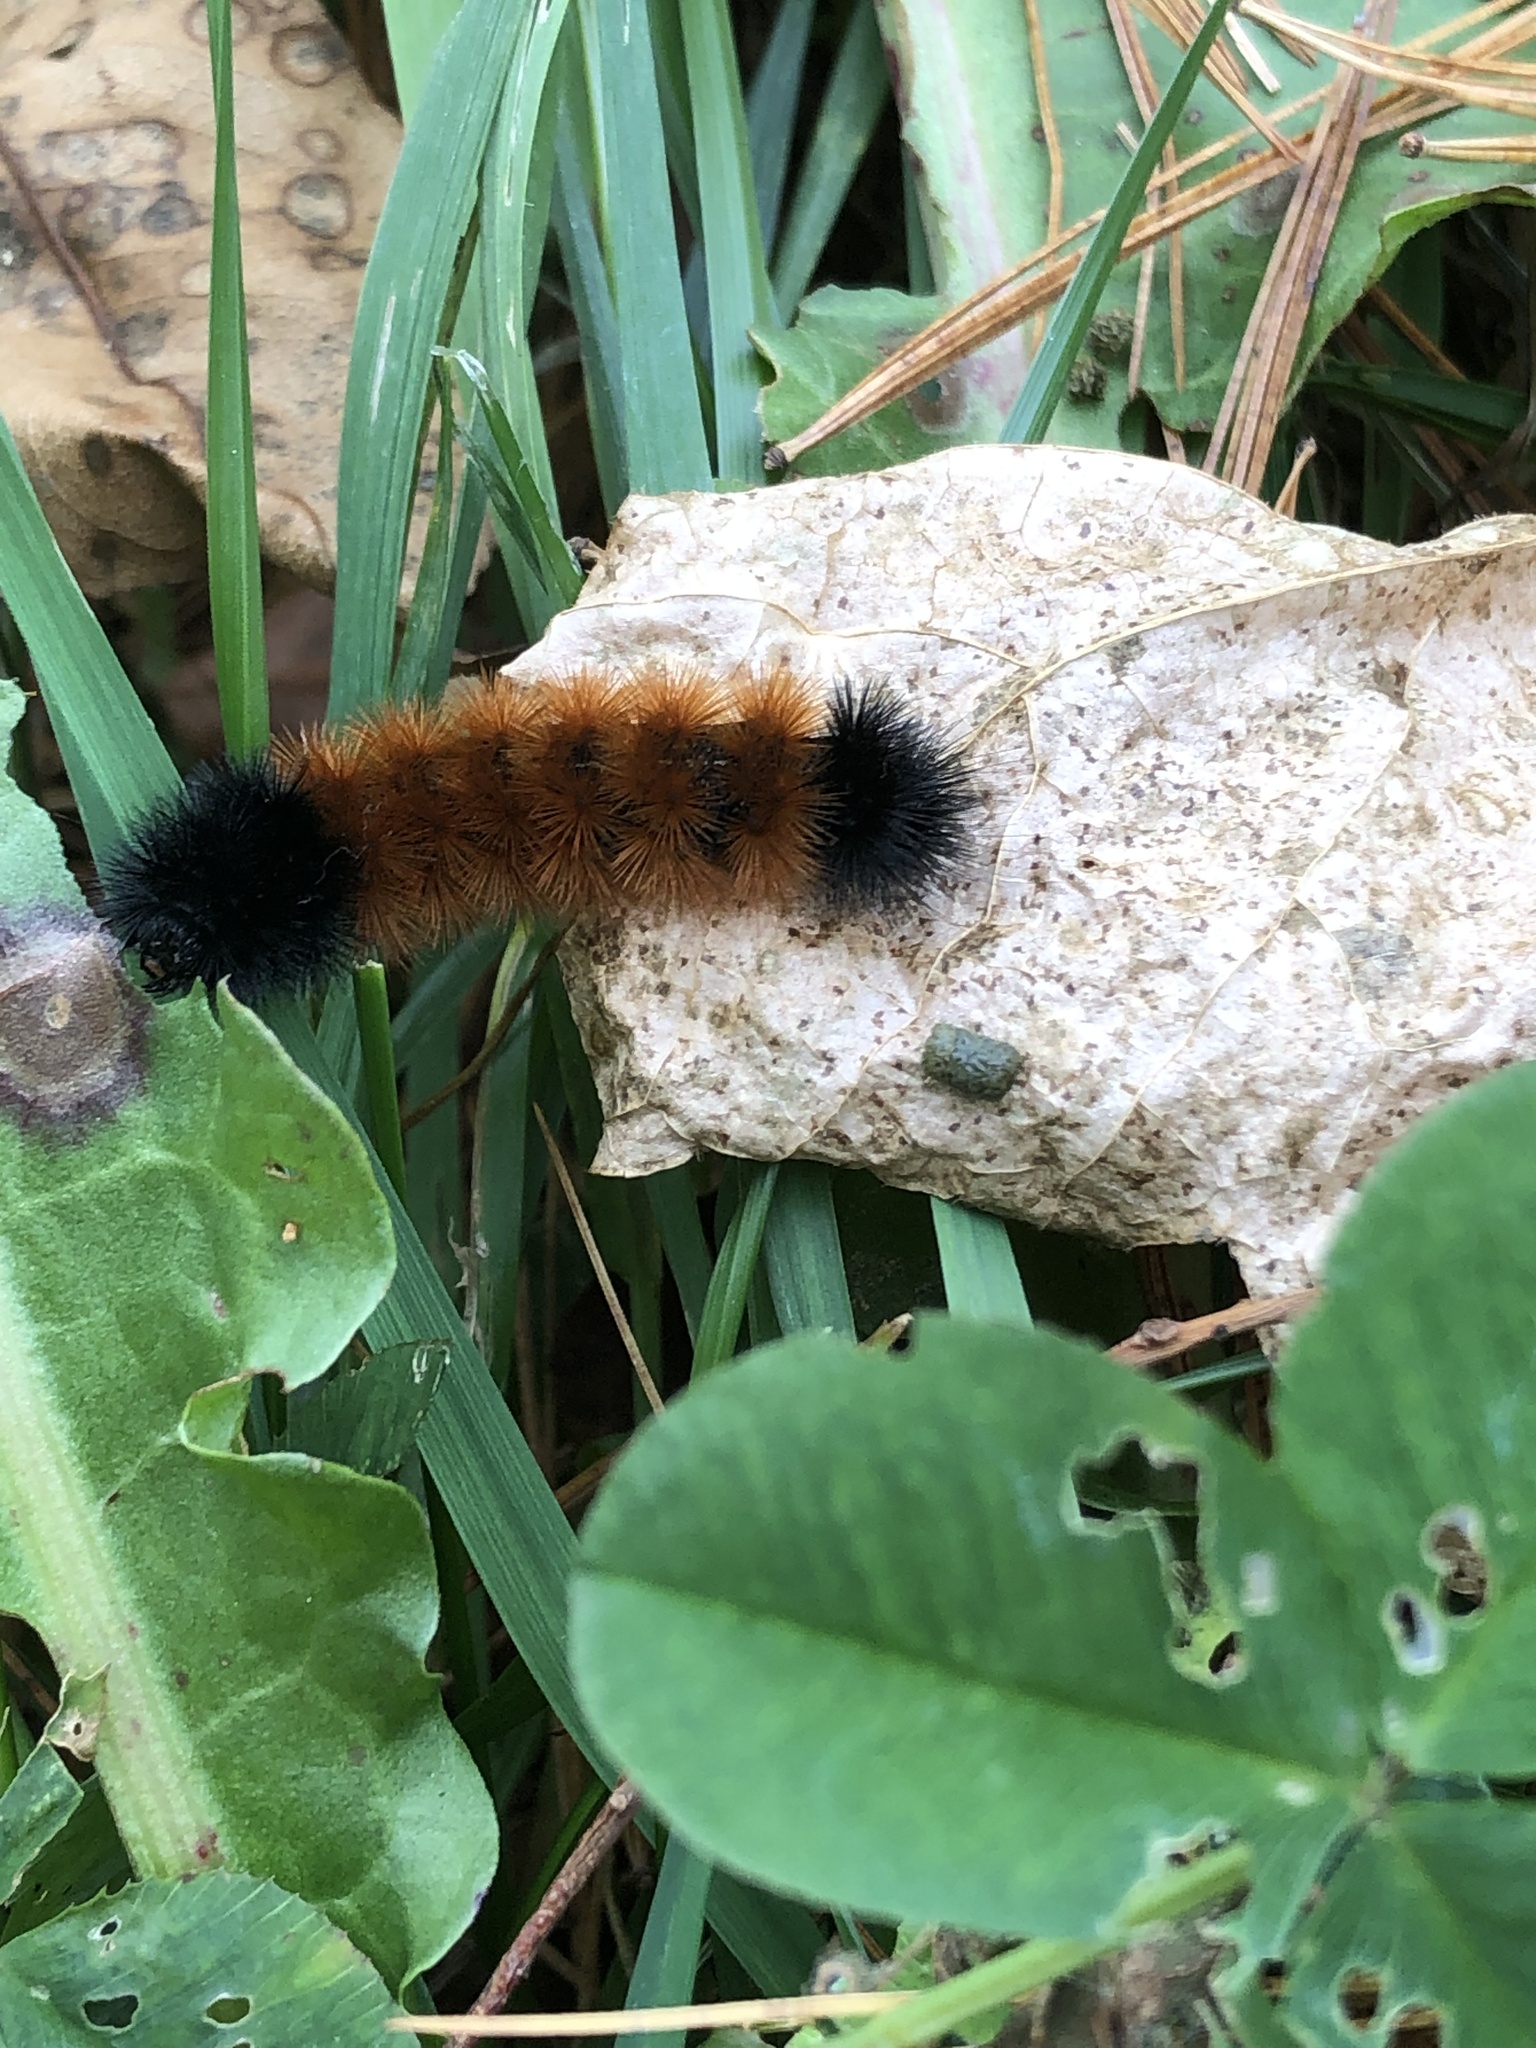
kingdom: Animalia
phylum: Arthropoda
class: Insecta
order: Lepidoptera
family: Erebidae
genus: Pyrrharctia
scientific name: Pyrrharctia isabella
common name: Isabella tiger moth
